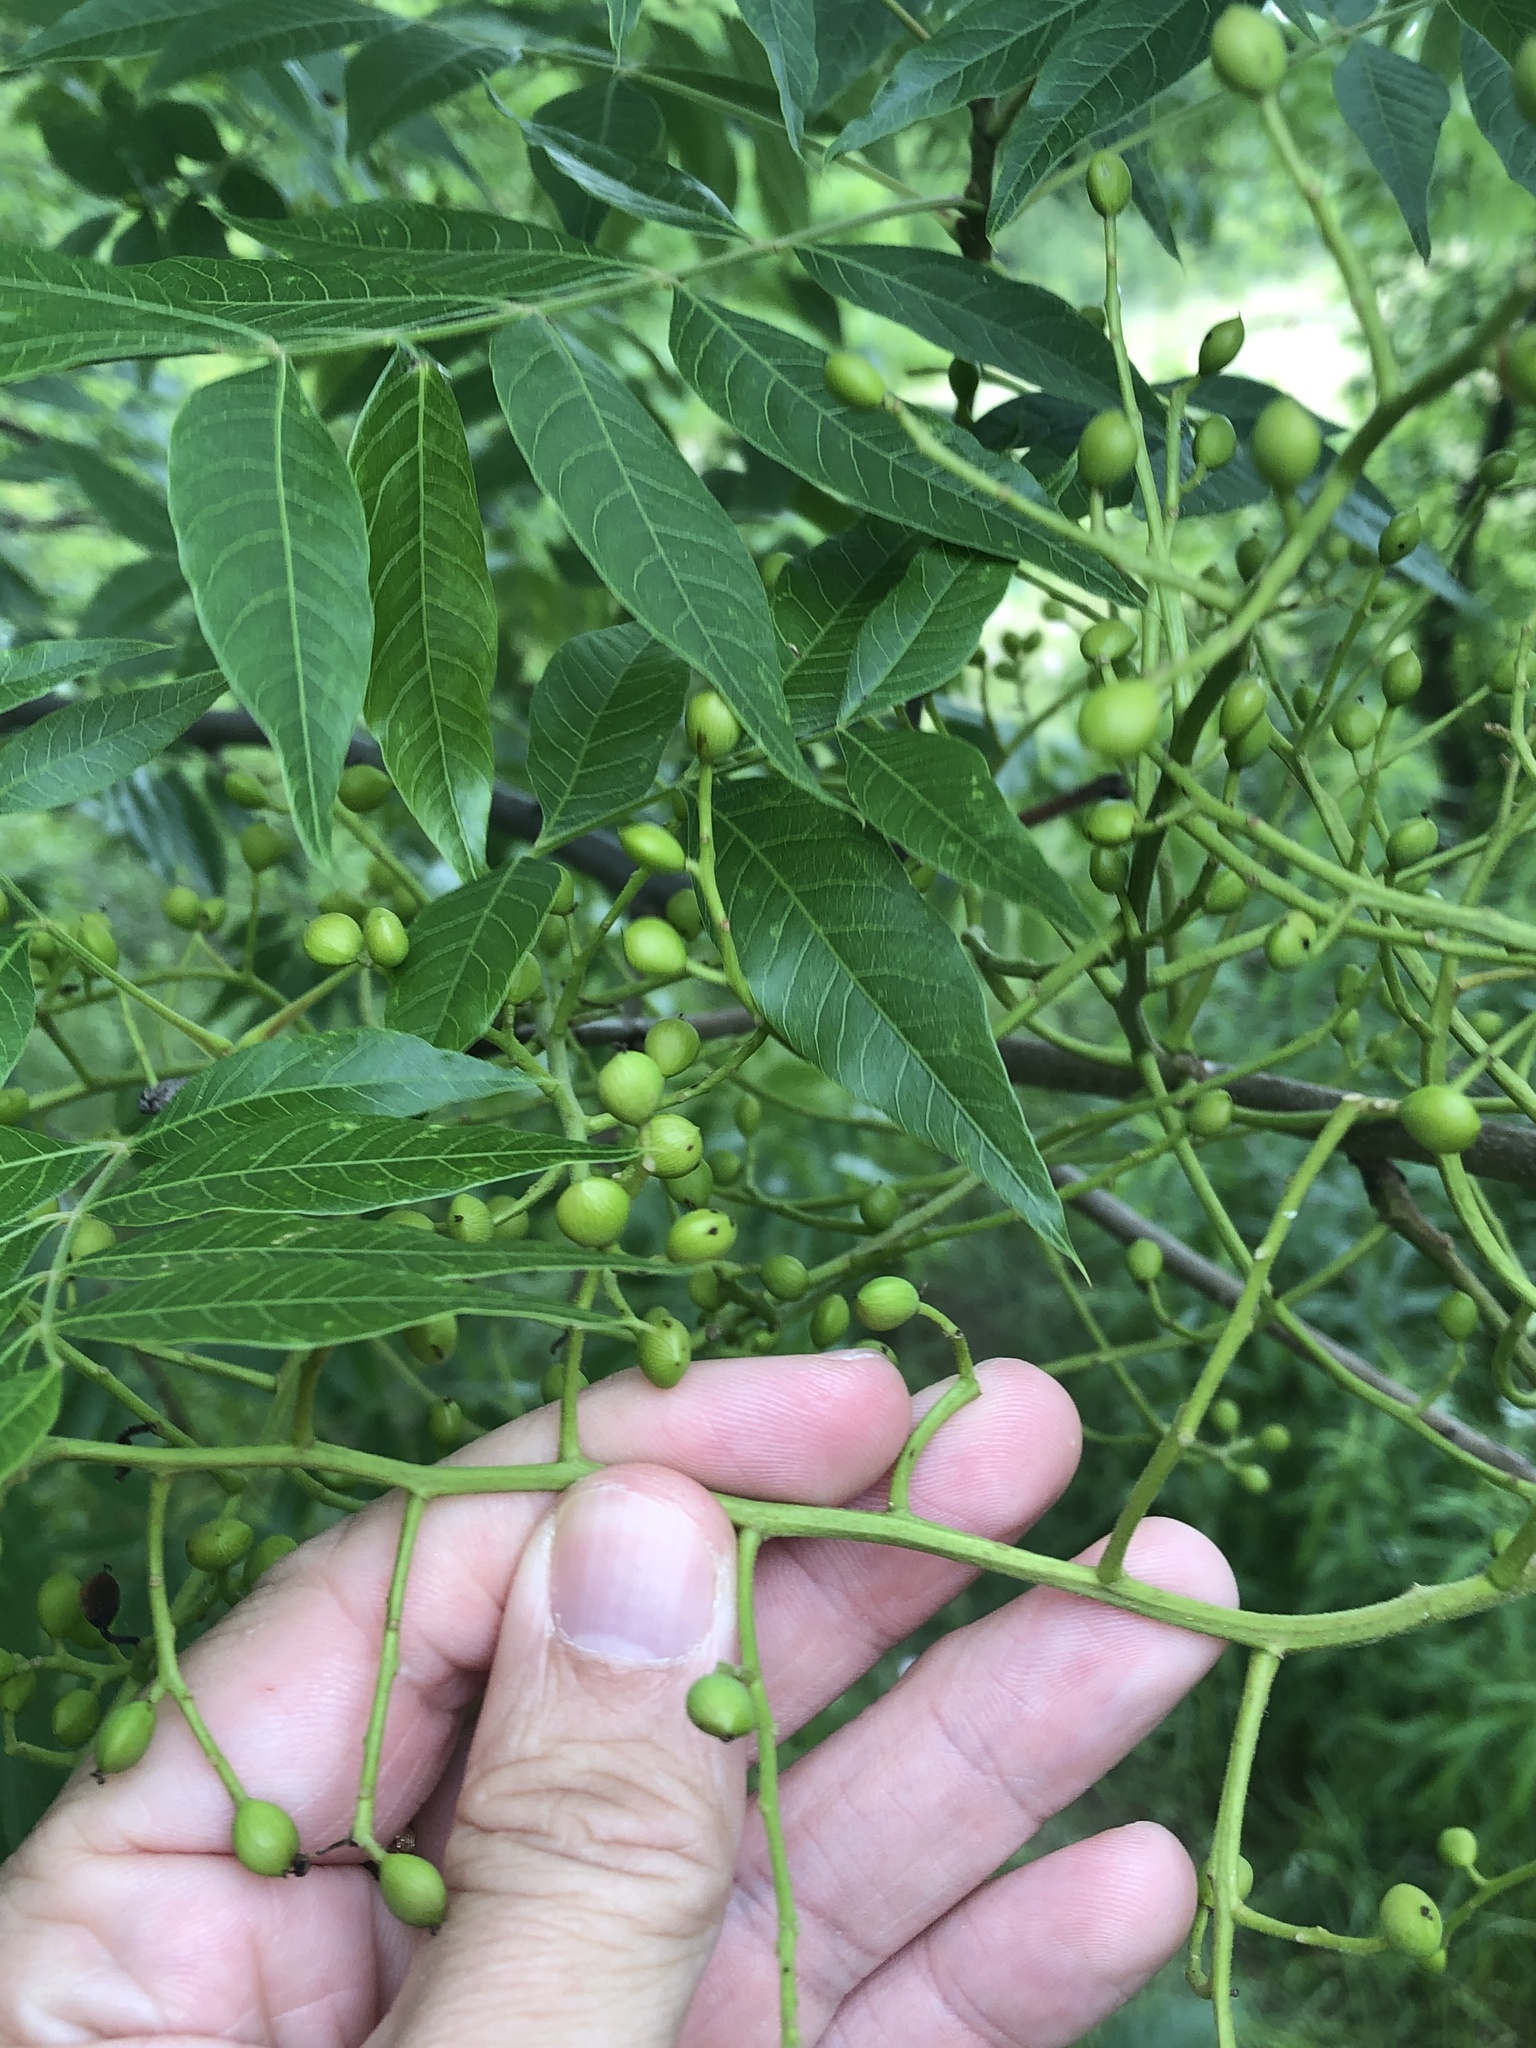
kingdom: Plantae
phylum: Tracheophyta
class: Magnoliopsida
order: Sapindales
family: Anacardiaceae
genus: Pistacia
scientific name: Pistacia chinensis
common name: Chinese pistache
